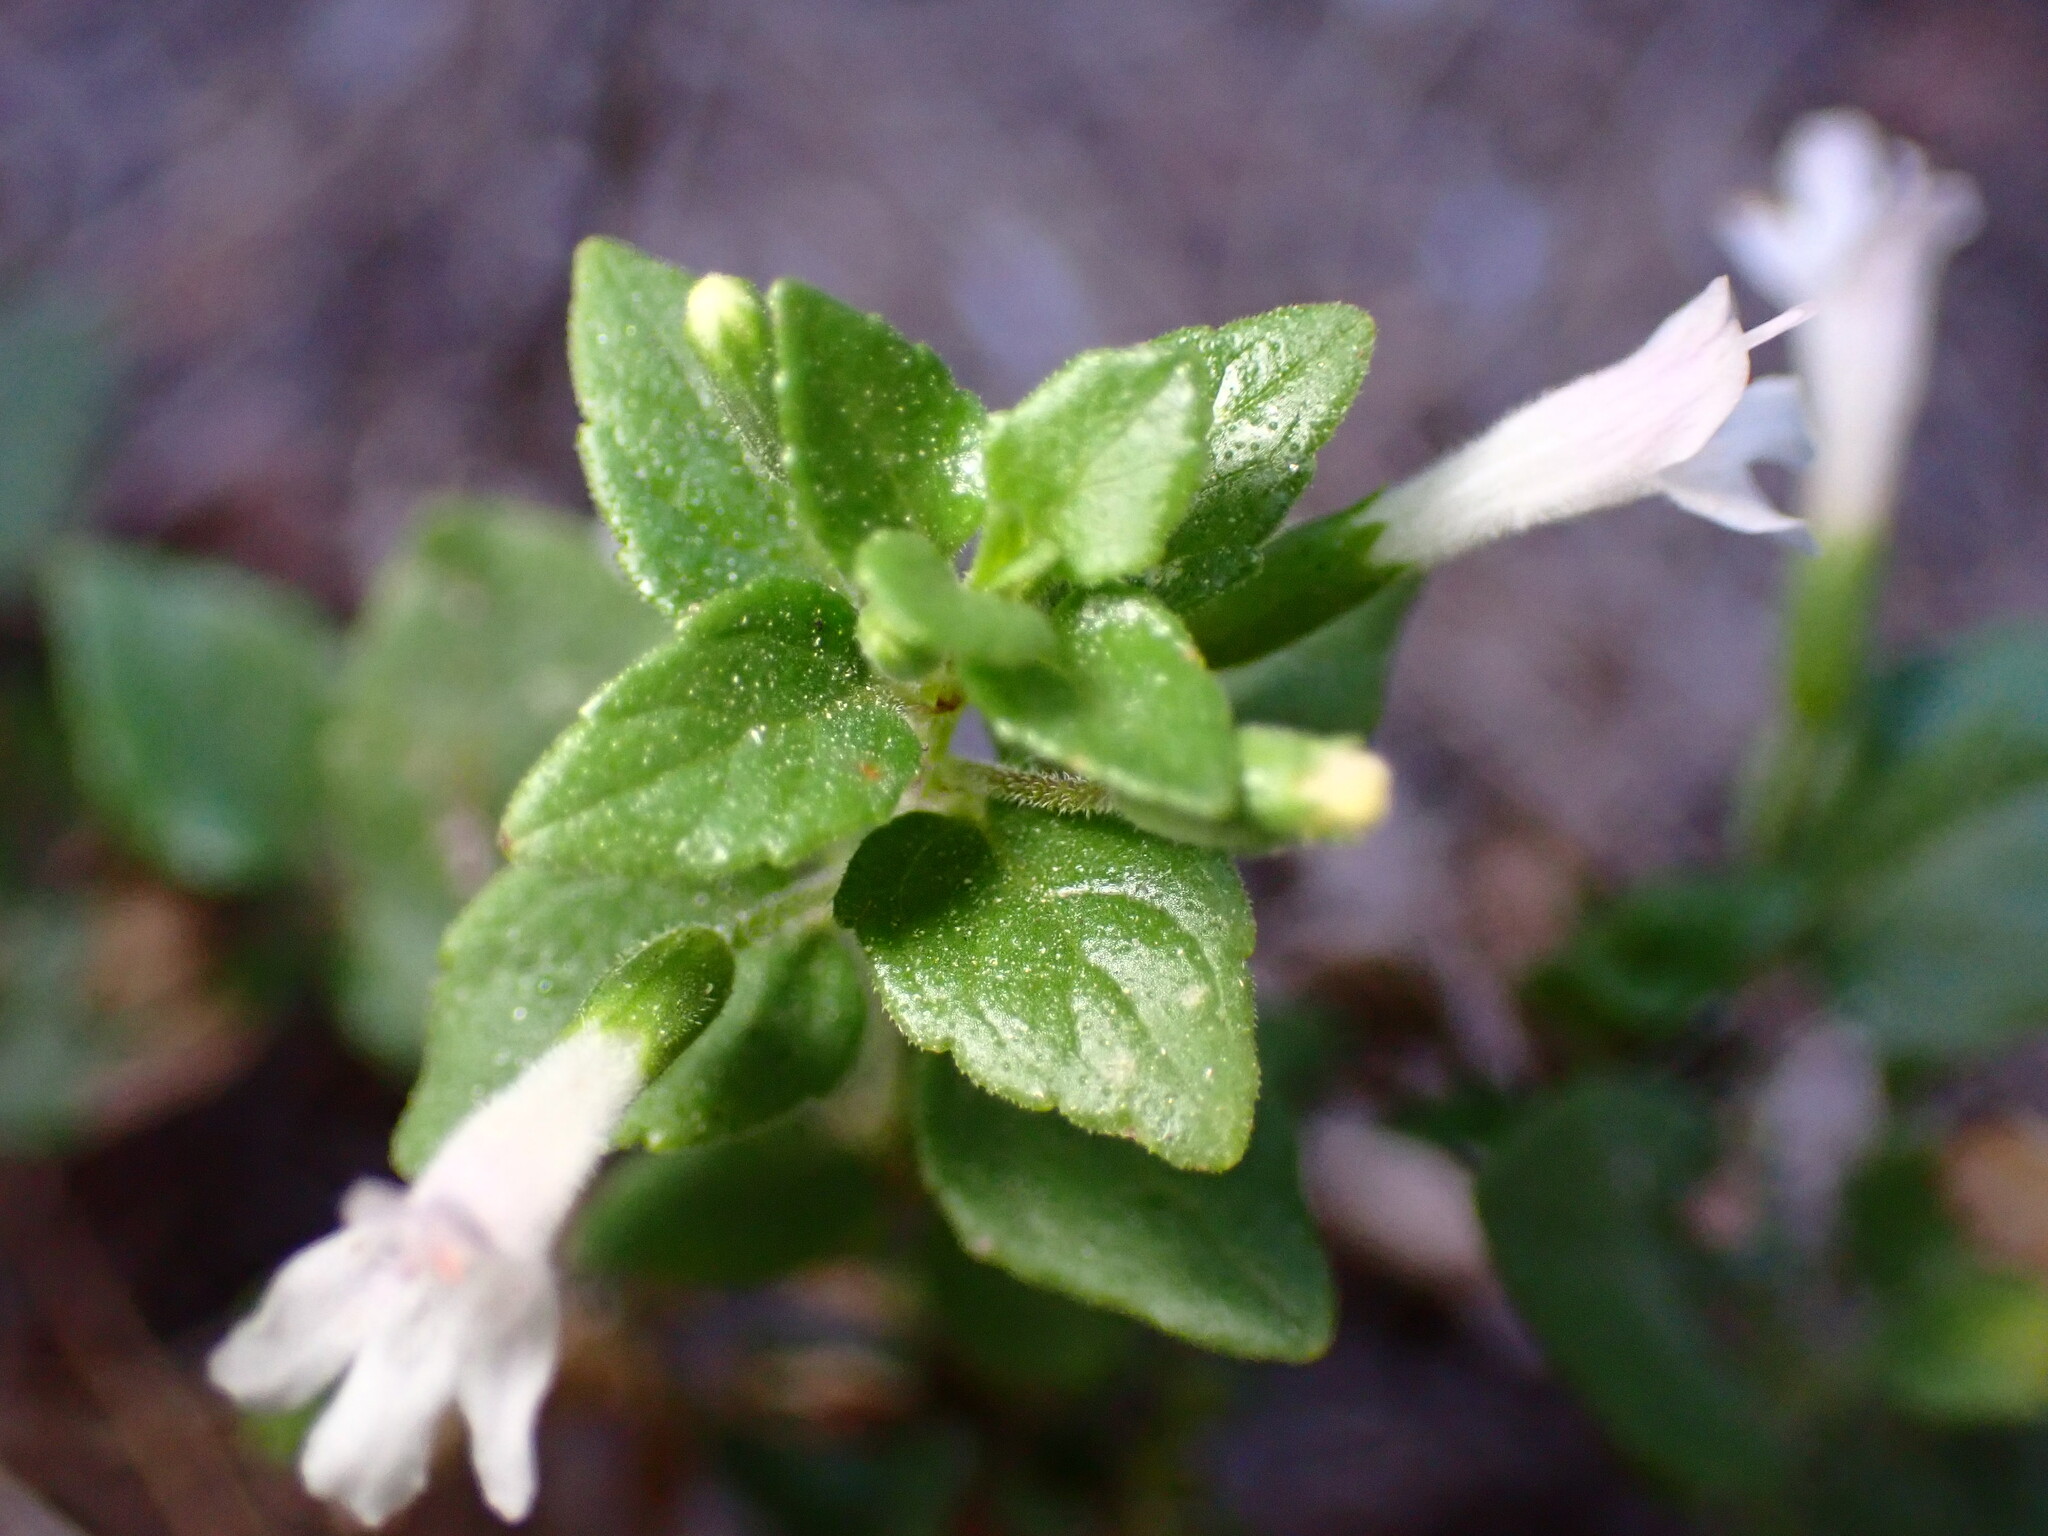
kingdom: Plantae
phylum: Tracheophyta
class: Magnoliopsida
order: Lamiales
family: Lamiaceae
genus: Micromeria
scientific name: Micromeria douglasii
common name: Yerba buena
